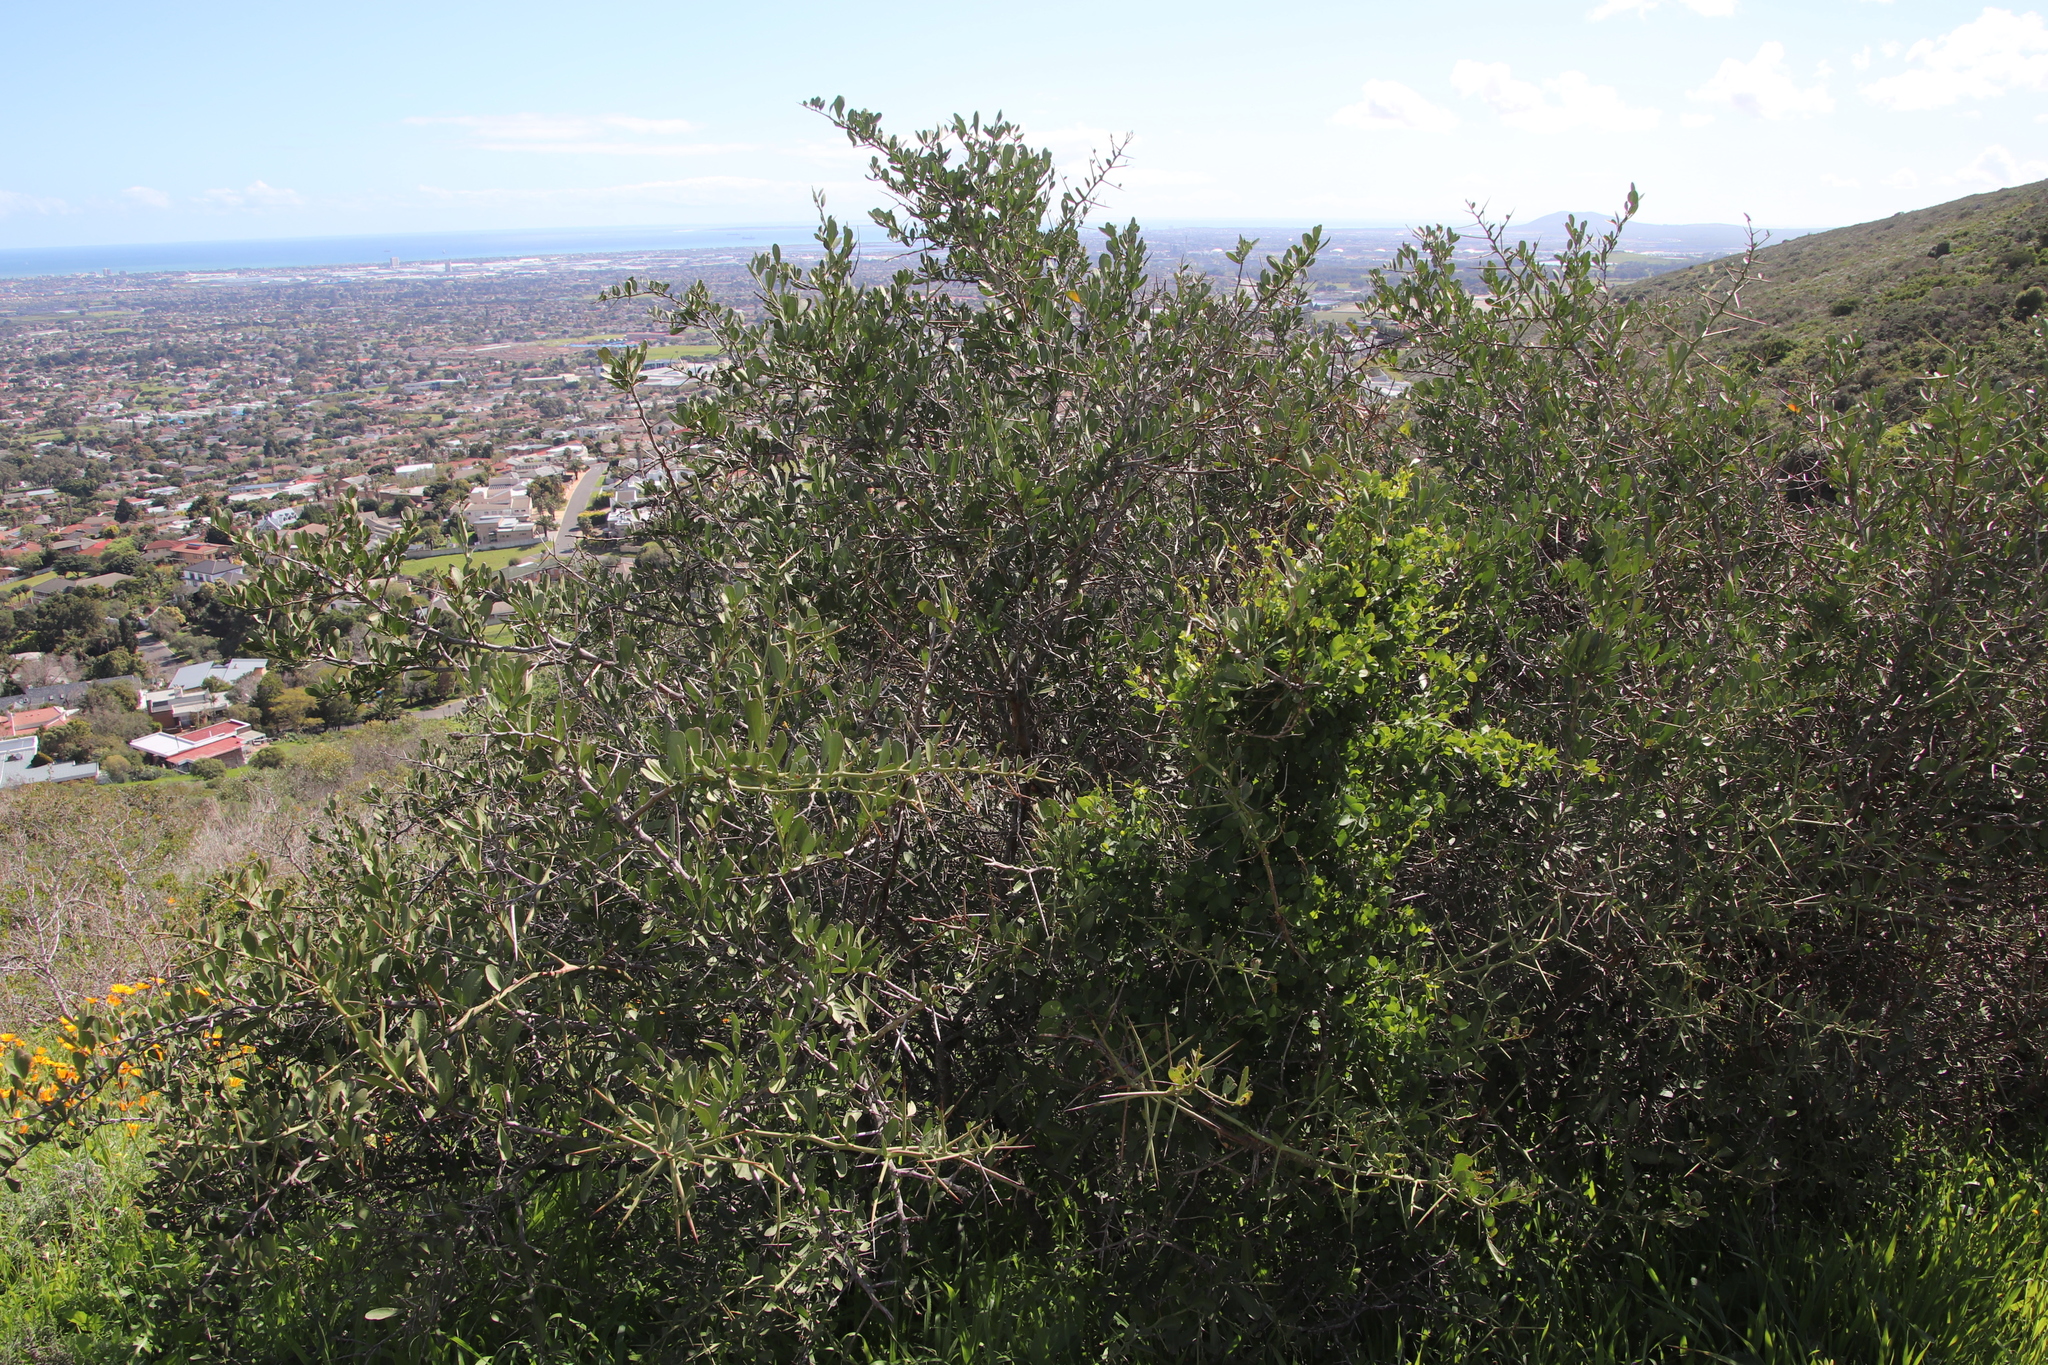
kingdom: Plantae
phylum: Tracheophyta
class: Magnoliopsida
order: Celastrales
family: Celastraceae
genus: Gymnosporia
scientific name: Gymnosporia buxifolia
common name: Common spike-thorn
